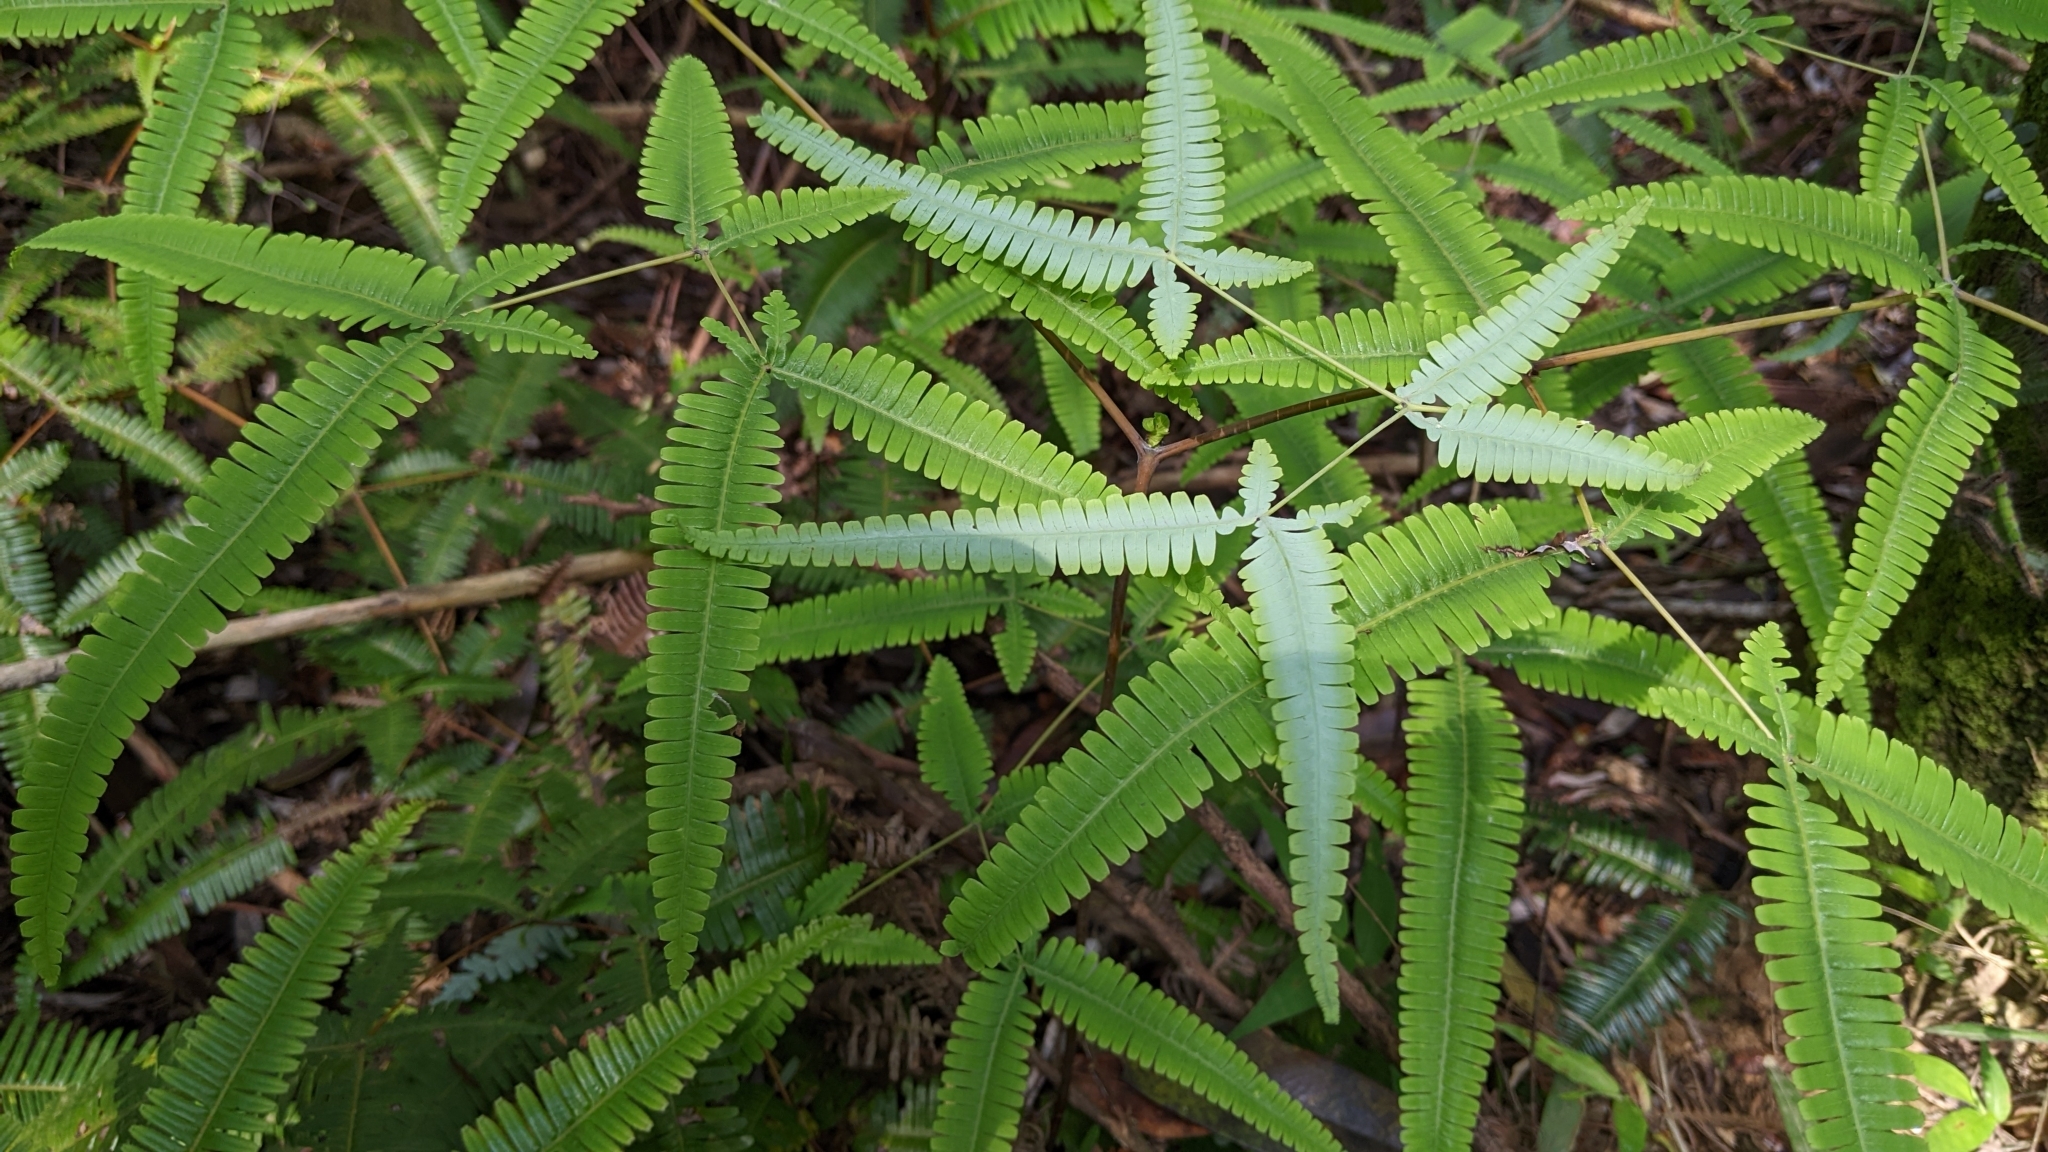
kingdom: Plantae
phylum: Tracheophyta
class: Polypodiopsida
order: Gleicheniales
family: Gleicheniaceae
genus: Dicranopteris
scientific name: Dicranopteris tetraphylla
